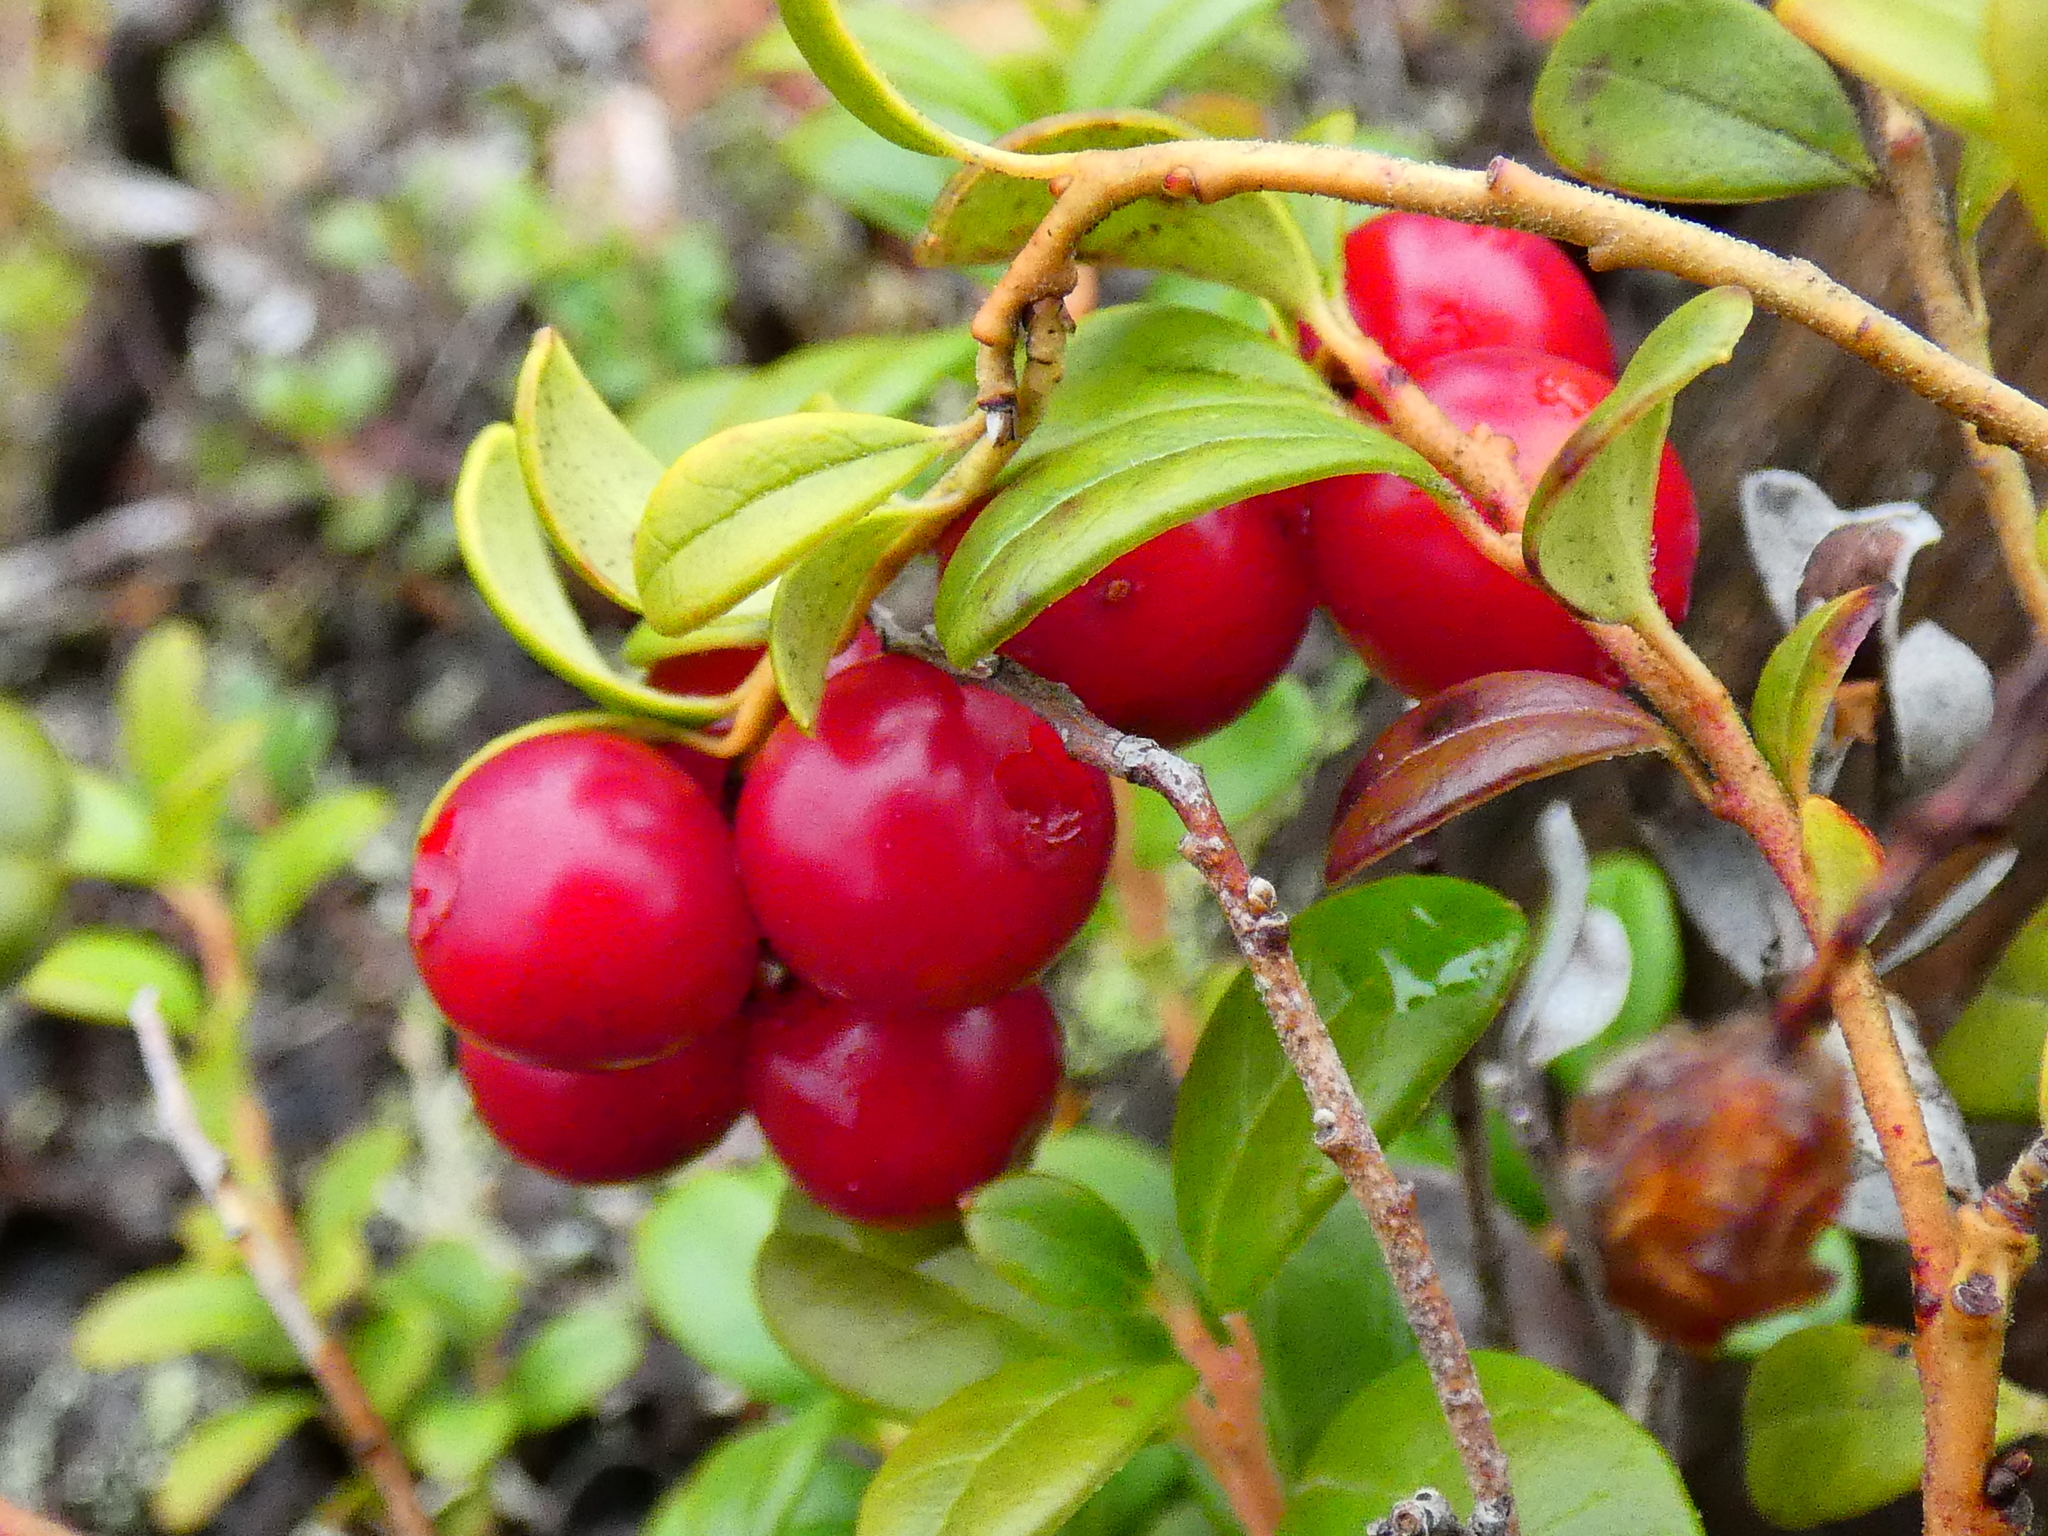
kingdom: Plantae
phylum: Tracheophyta
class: Magnoliopsida
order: Ericales
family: Ericaceae
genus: Vaccinium
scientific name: Vaccinium vitis-idaea
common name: Cowberry
